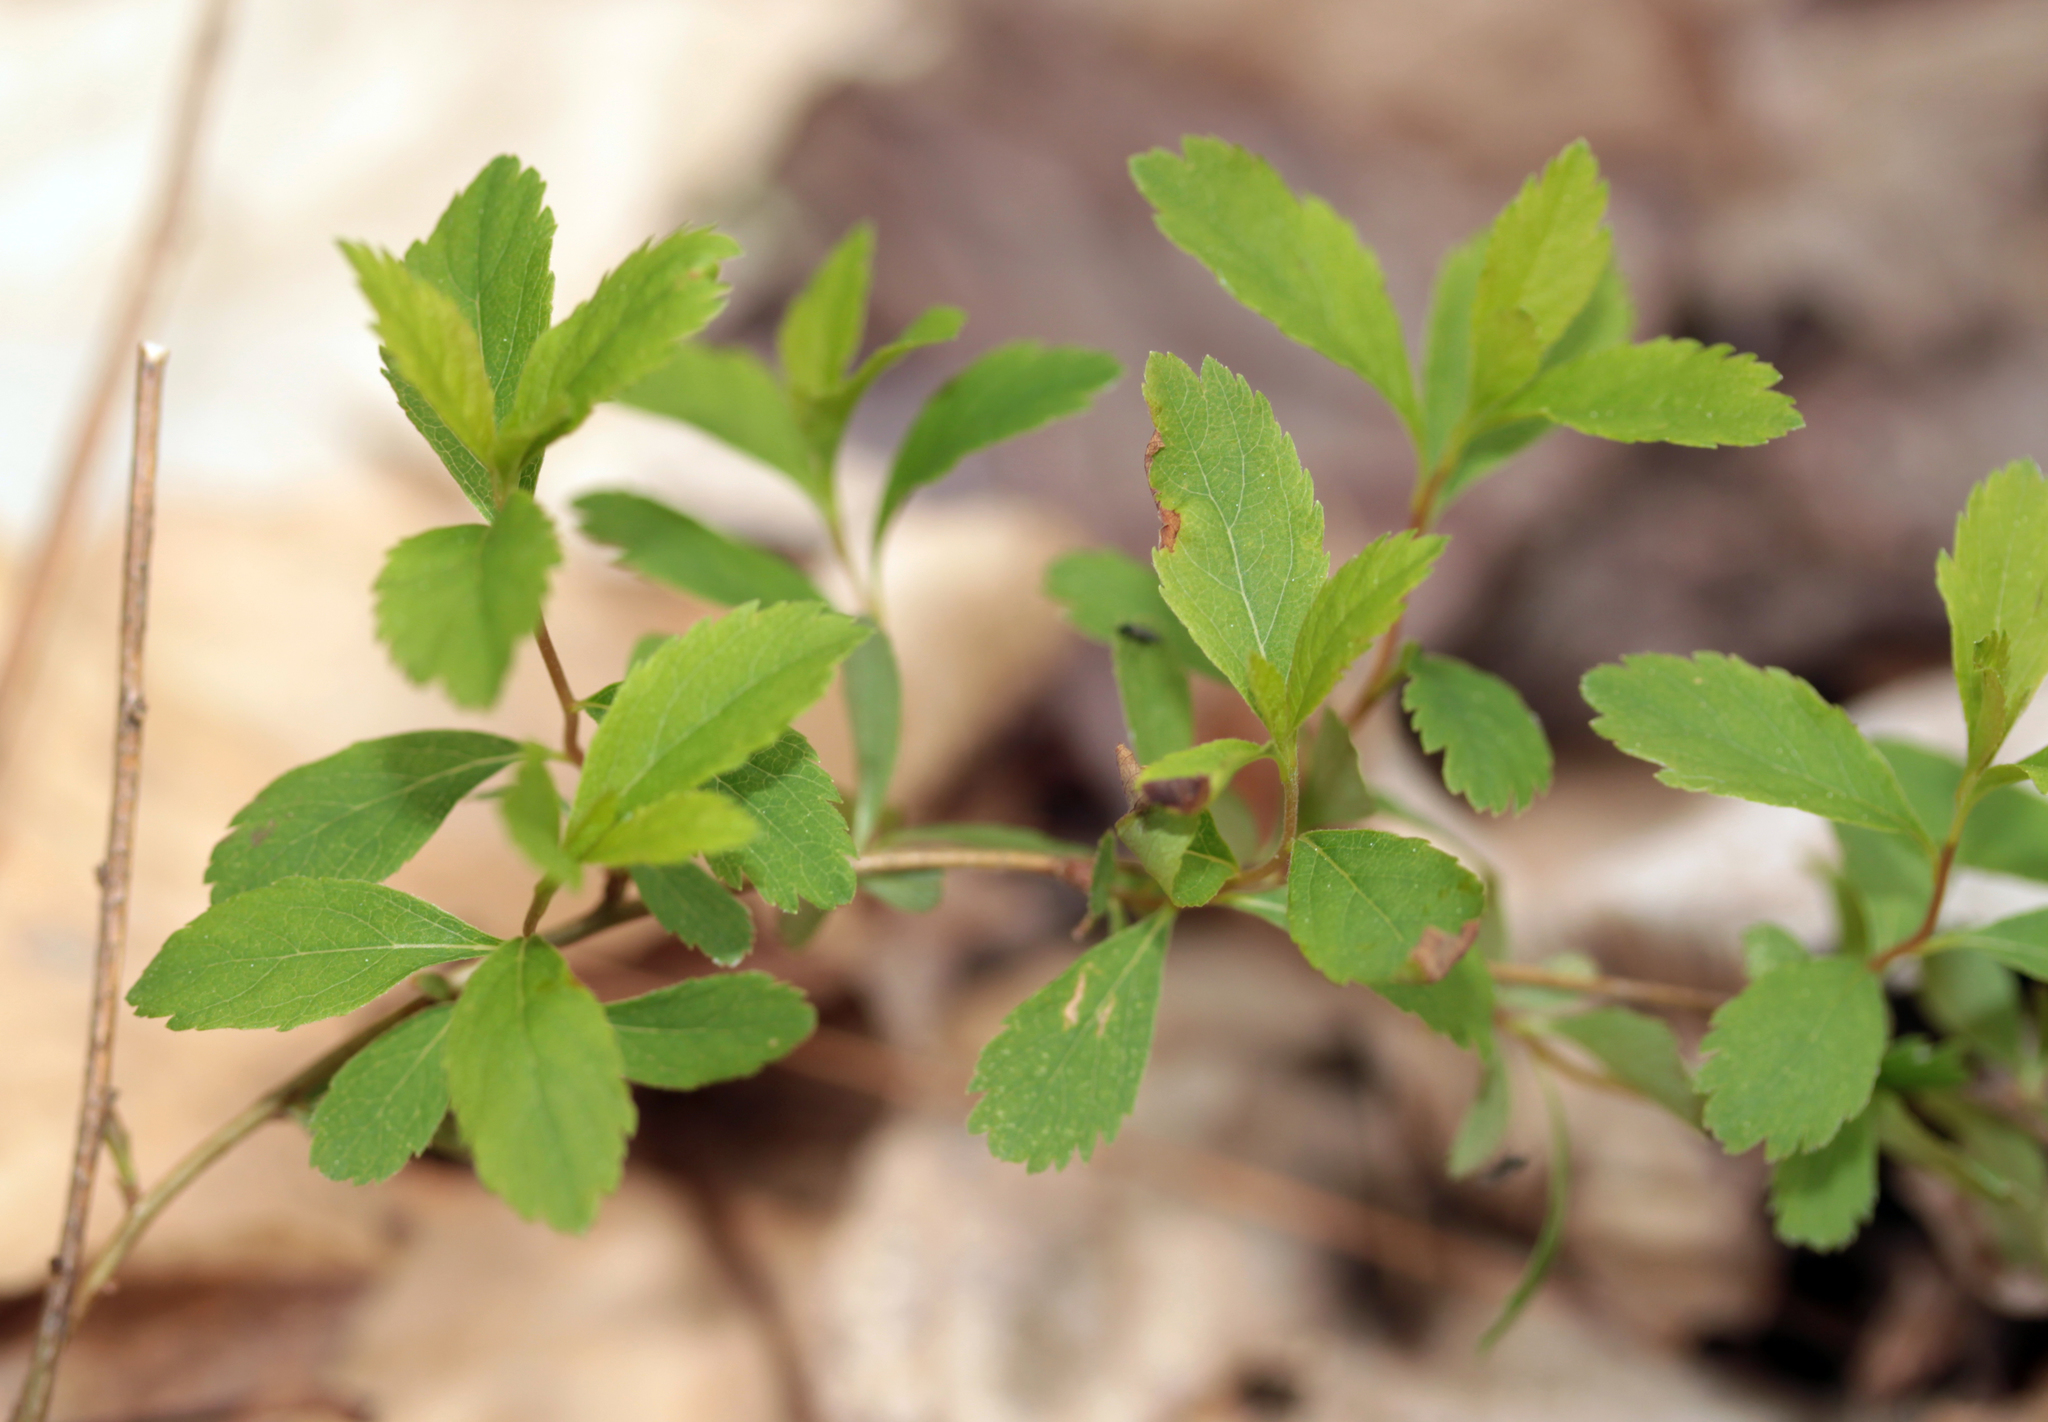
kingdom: Plantae
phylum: Tracheophyta
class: Magnoliopsida
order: Rosales
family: Rosaceae
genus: Spiraea
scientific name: Spiraea alba
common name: Pale bridewort
